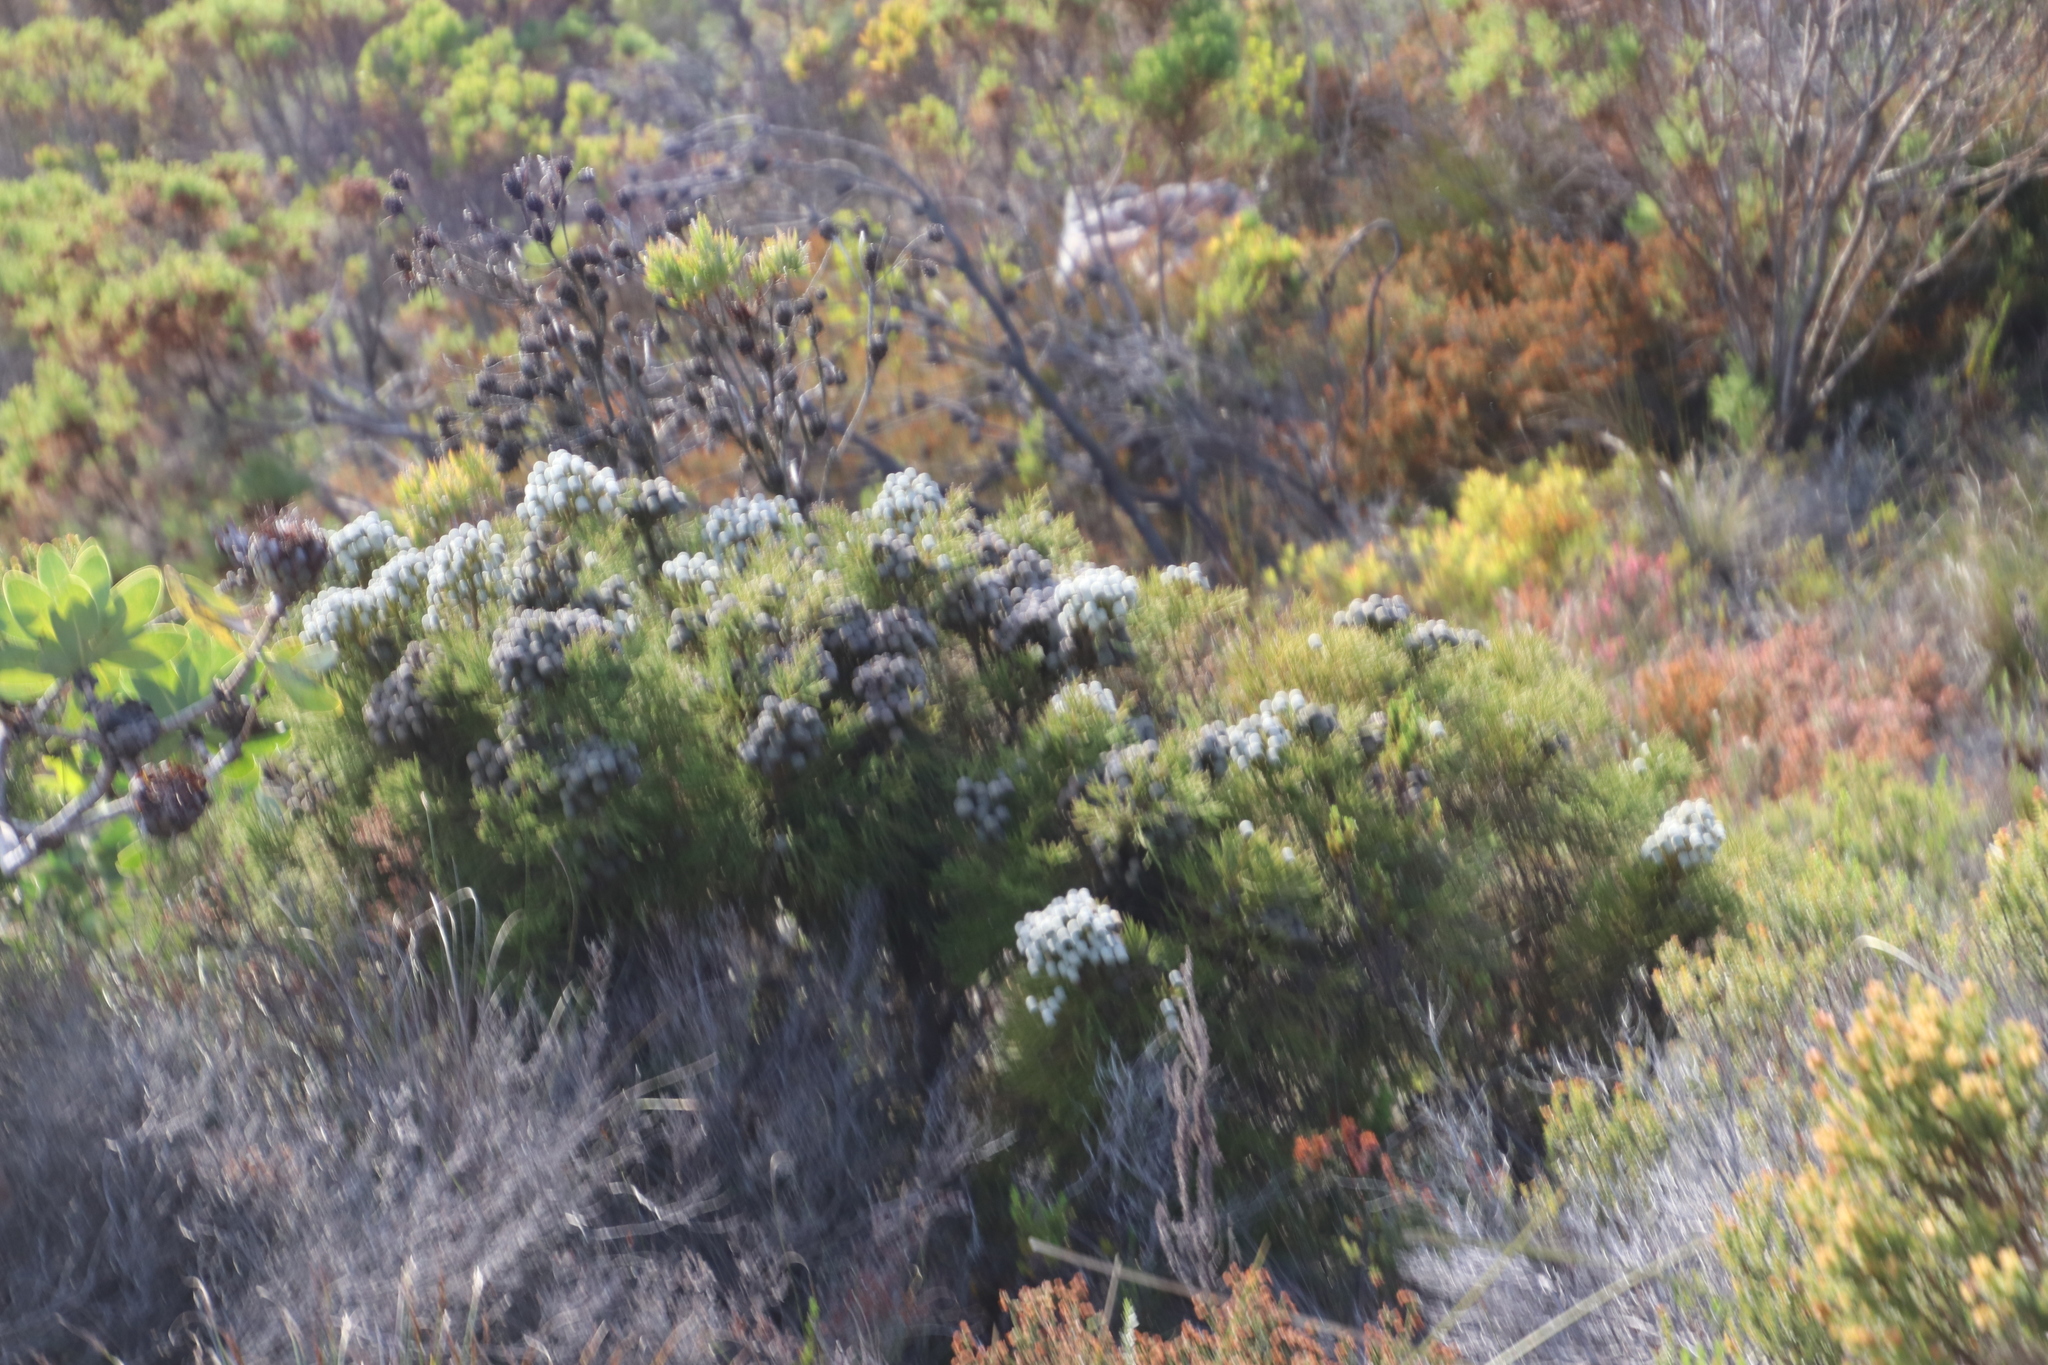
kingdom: Plantae
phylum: Tracheophyta
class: Magnoliopsida
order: Bruniales
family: Bruniaceae
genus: Brunia
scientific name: Brunia noduliflora
